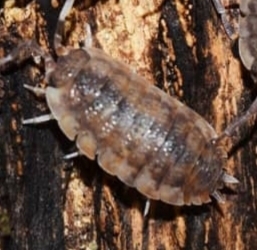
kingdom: Animalia
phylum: Arthropoda
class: Malacostraca
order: Isopoda
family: Porcellionidae
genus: Porcellio
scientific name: Porcellio scaber
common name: Common rough woodlouse
